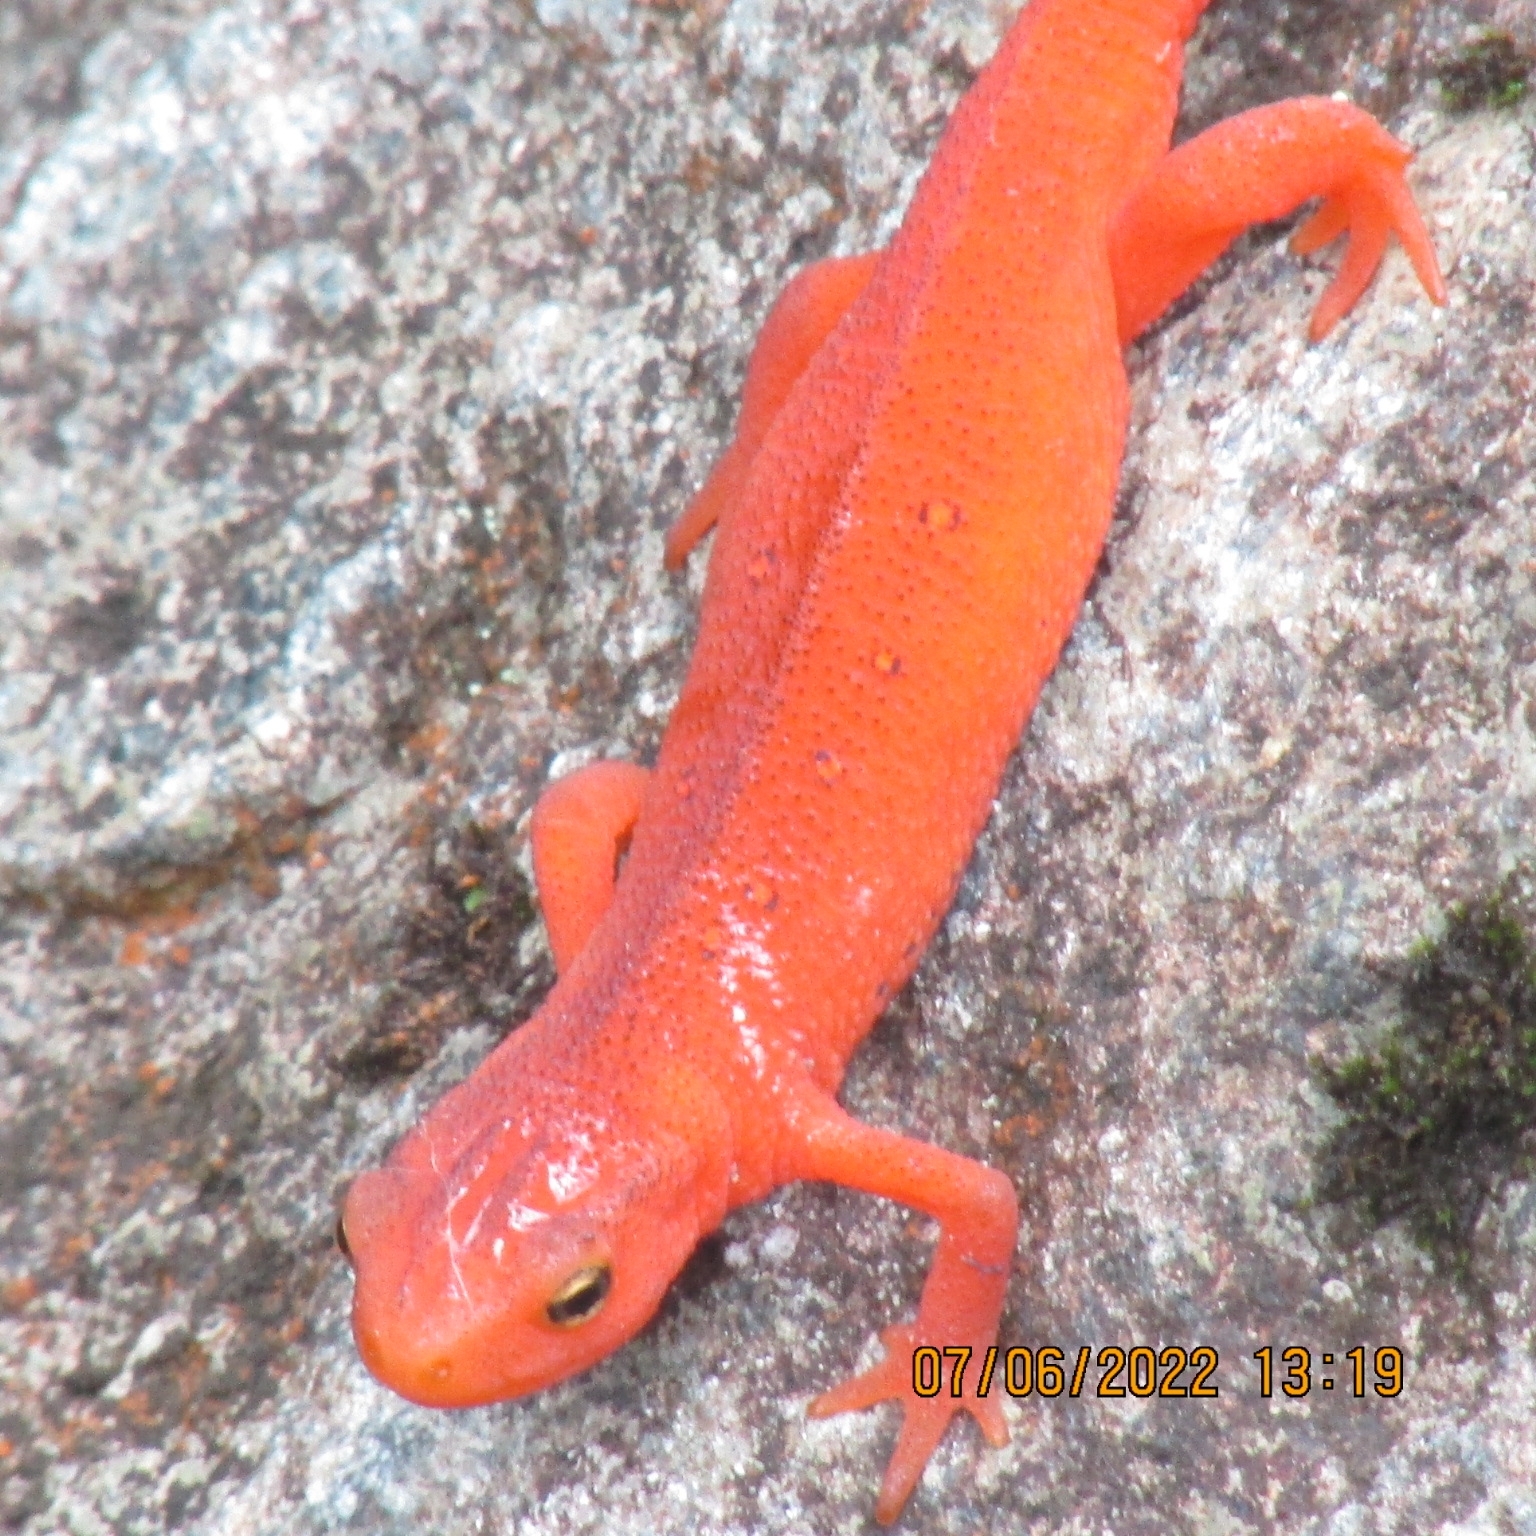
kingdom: Animalia
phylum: Chordata
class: Amphibia
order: Caudata
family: Salamandridae
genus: Notophthalmus
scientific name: Notophthalmus viridescens
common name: Eastern newt
